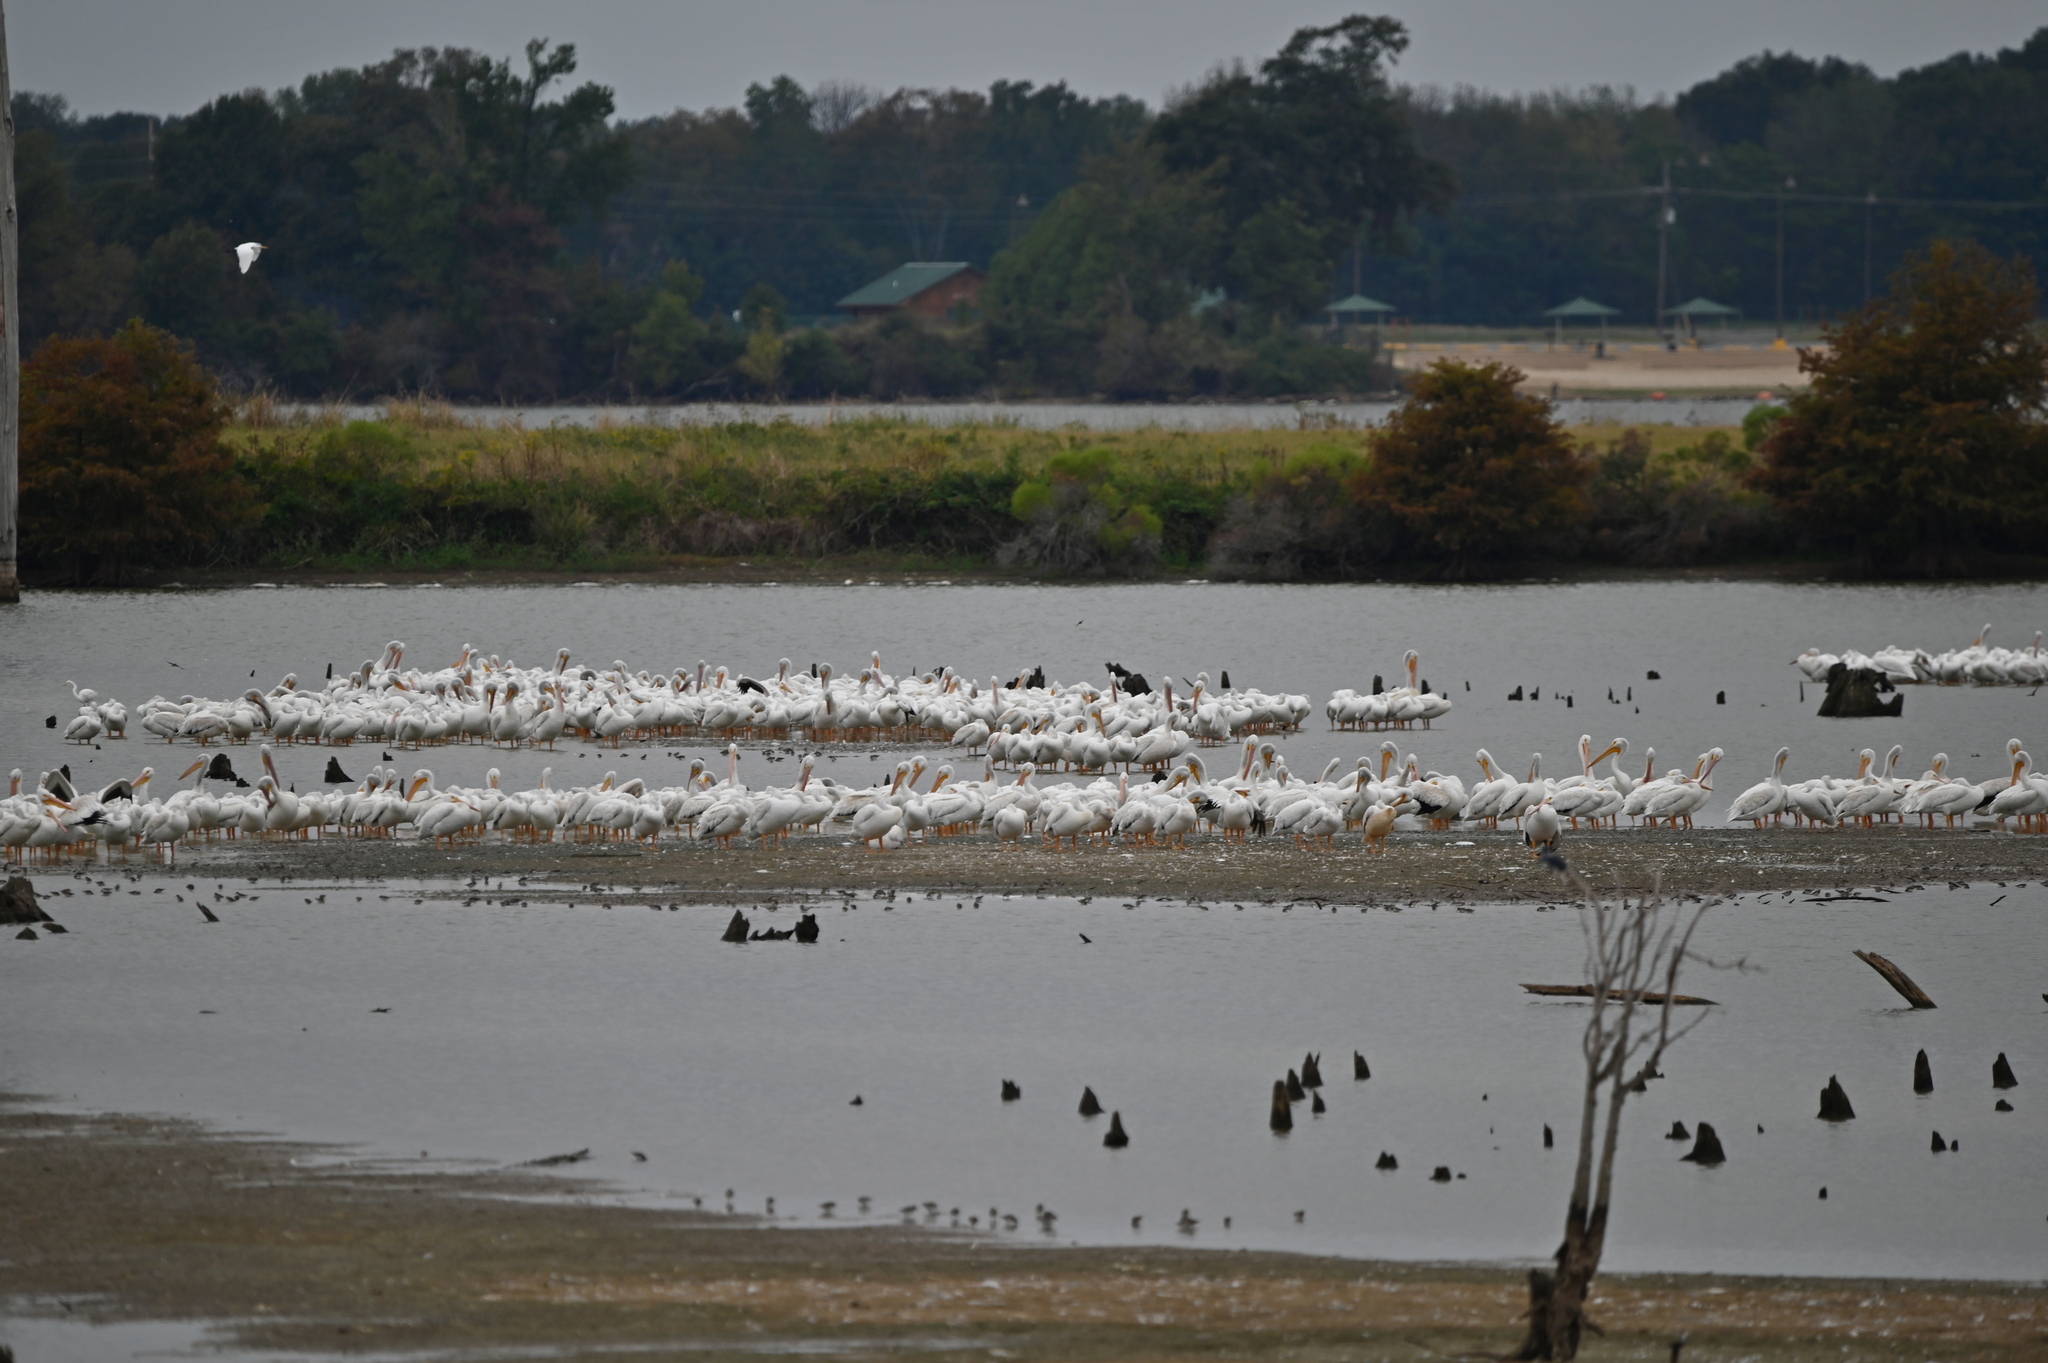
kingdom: Animalia
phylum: Chordata
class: Aves
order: Pelecaniformes
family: Pelecanidae
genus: Pelecanus
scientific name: Pelecanus erythrorhynchos
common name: American white pelican
